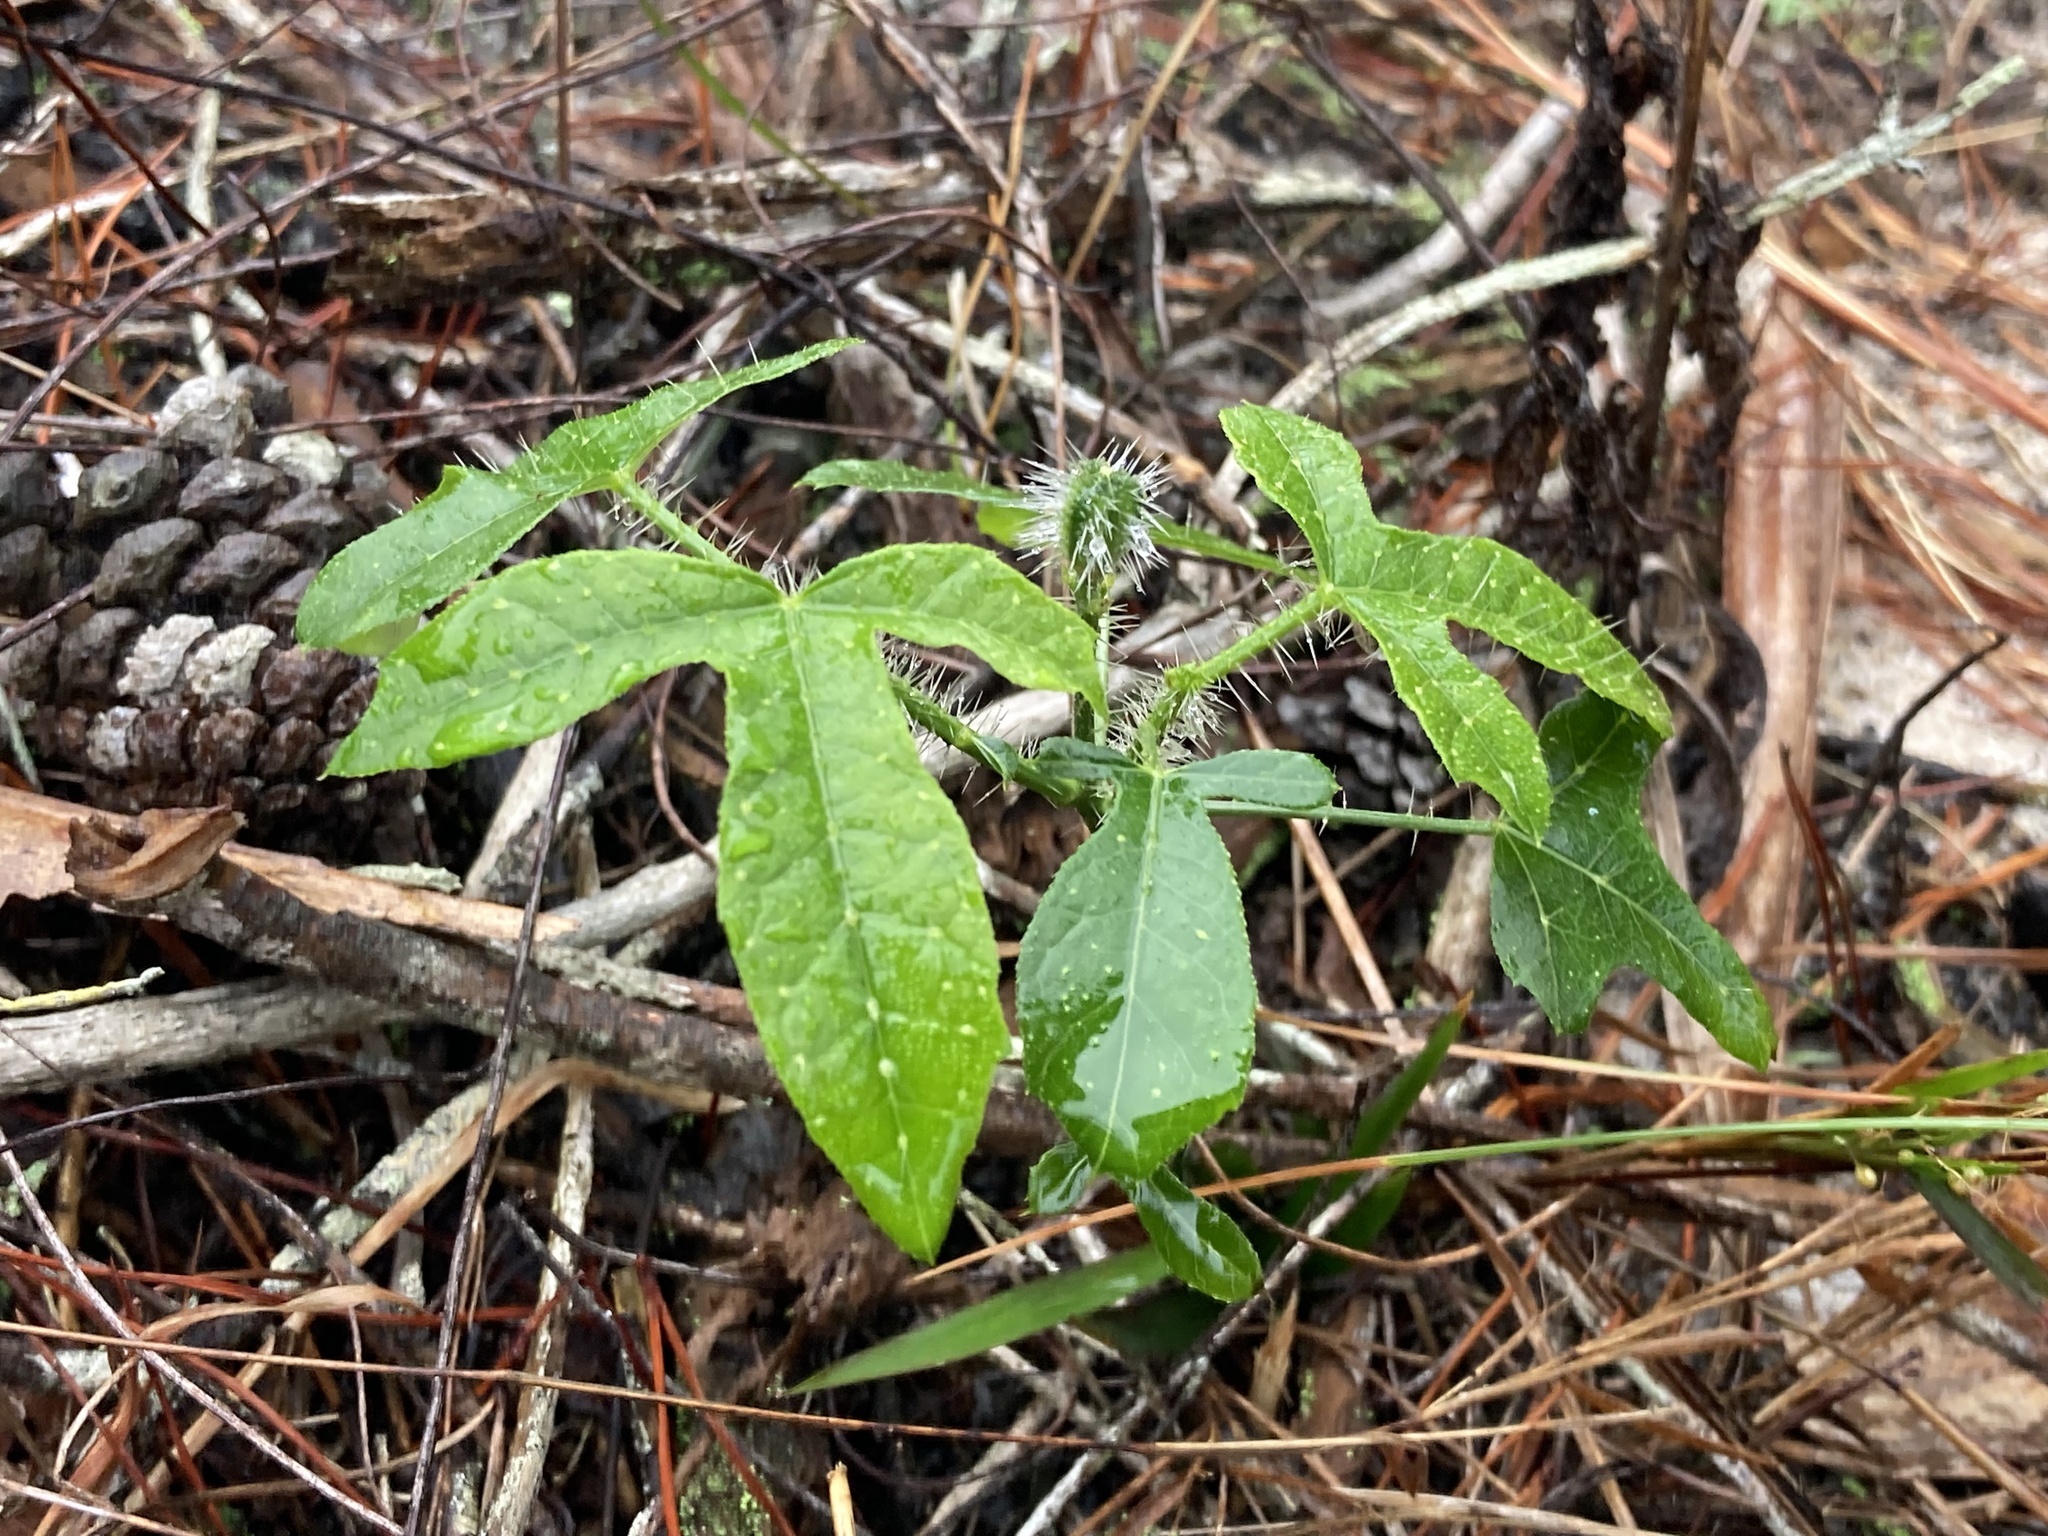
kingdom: Plantae
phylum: Tracheophyta
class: Magnoliopsida
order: Malpighiales
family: Euphorbiaceae
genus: Cnidoscolus
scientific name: Cnidoscolus stimulosus
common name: Bull-nettle
